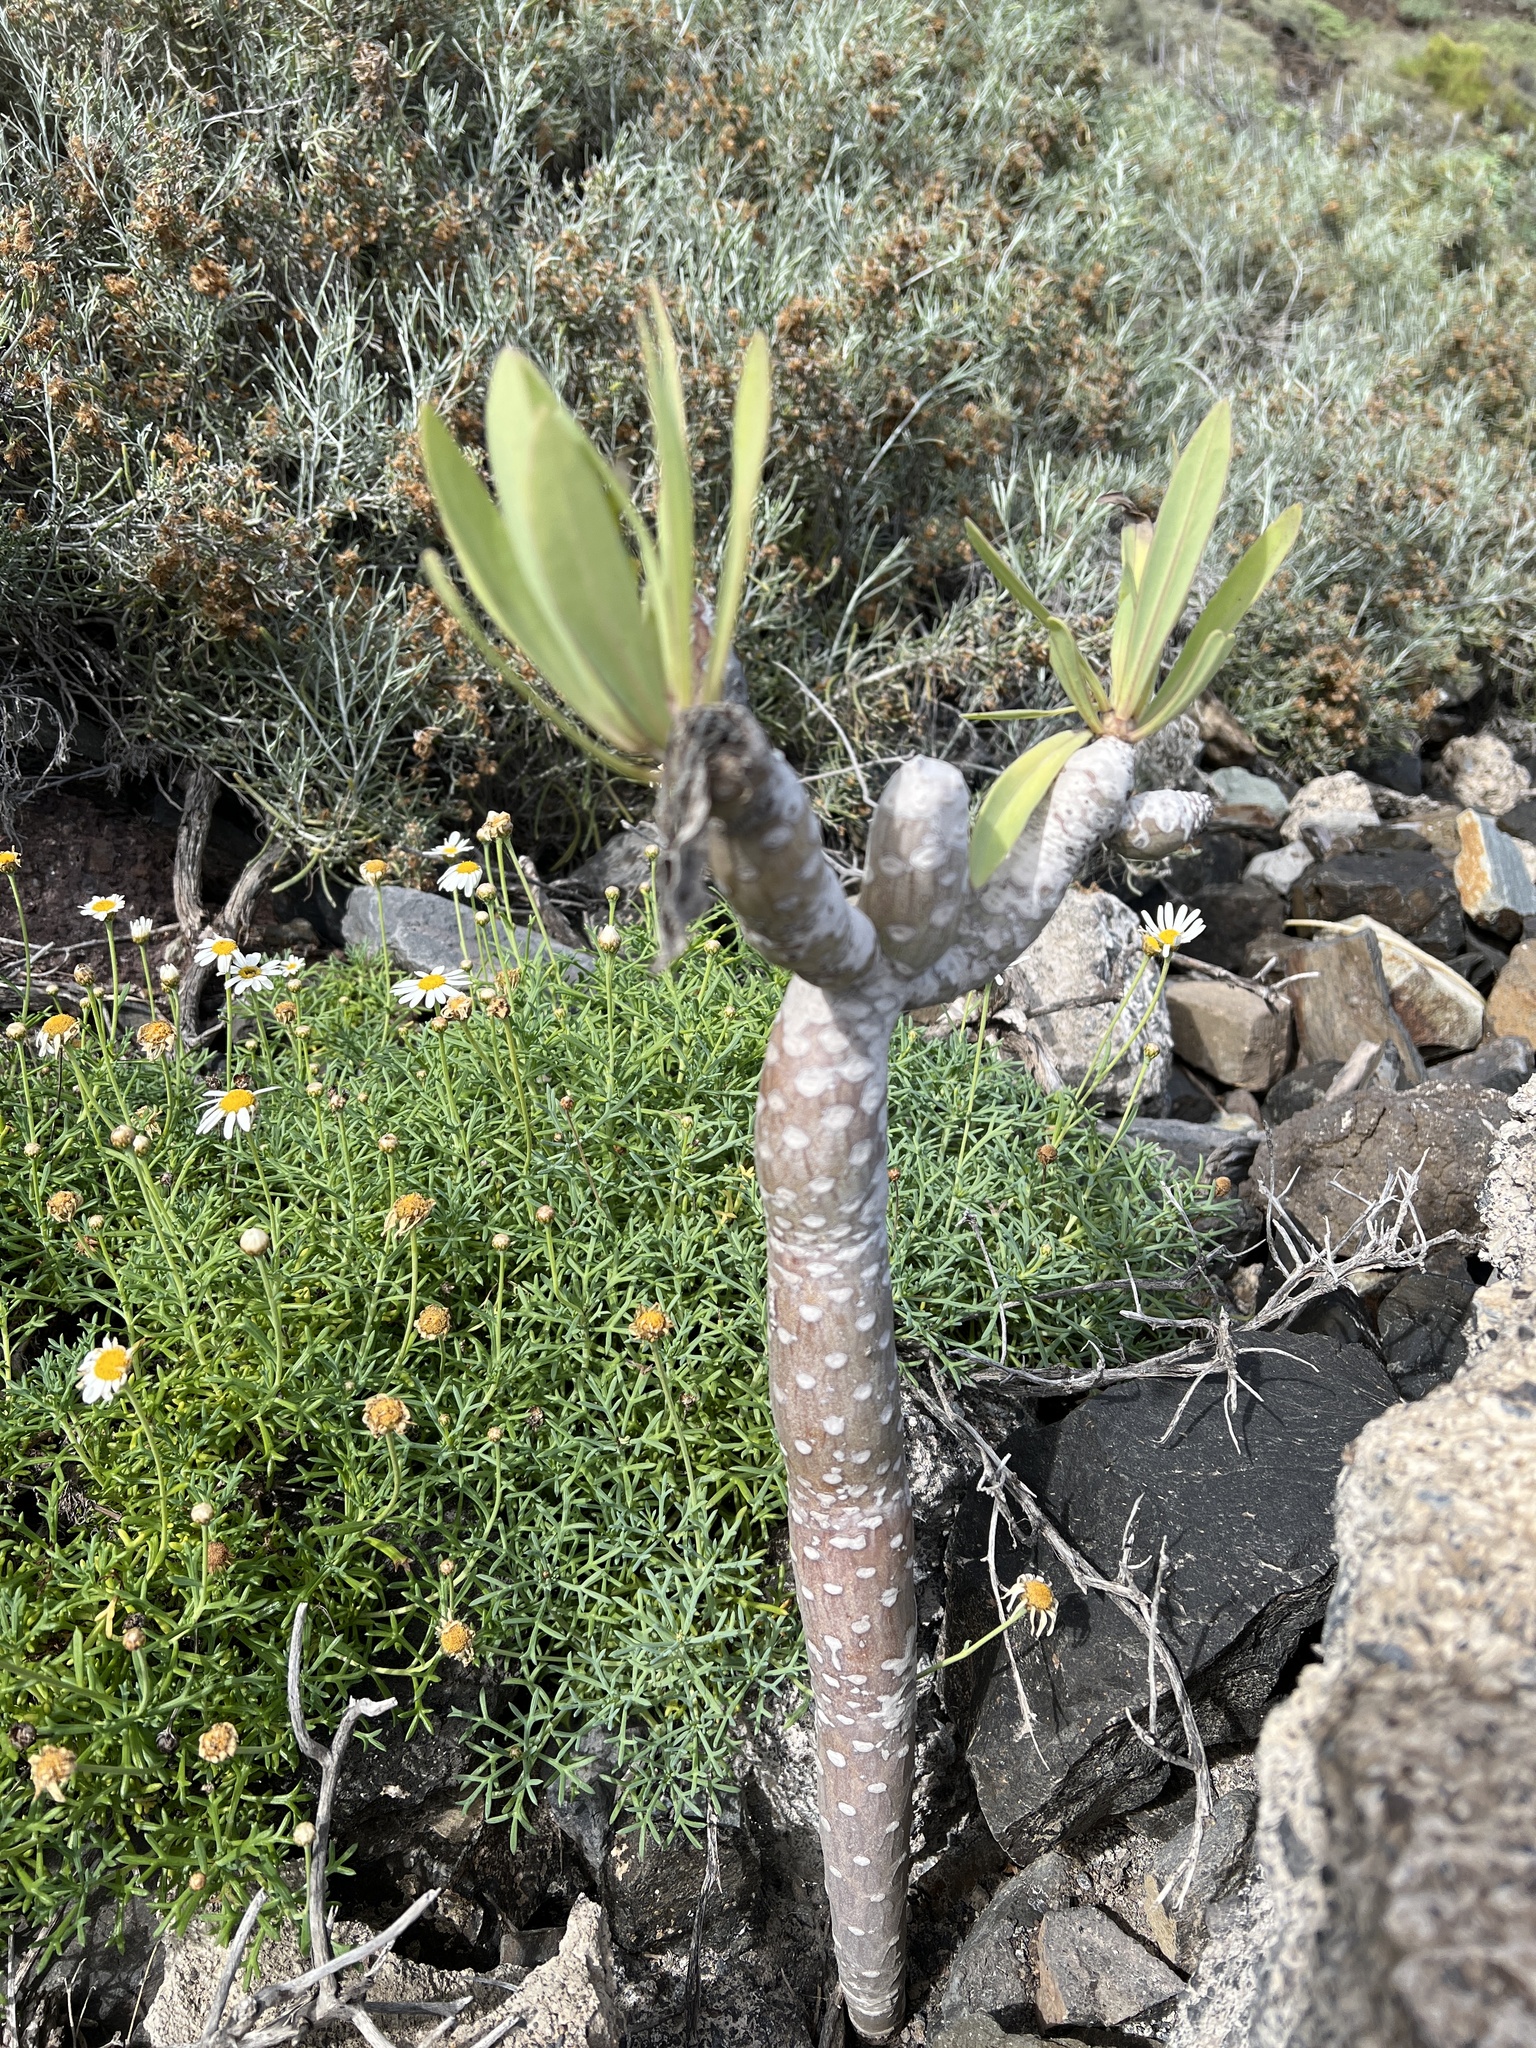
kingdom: Plantae
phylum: Tracheophyta
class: Magnoliopsida
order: Asterales
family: Asteraceae
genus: Kleinia
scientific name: Kleinia neriifolia
